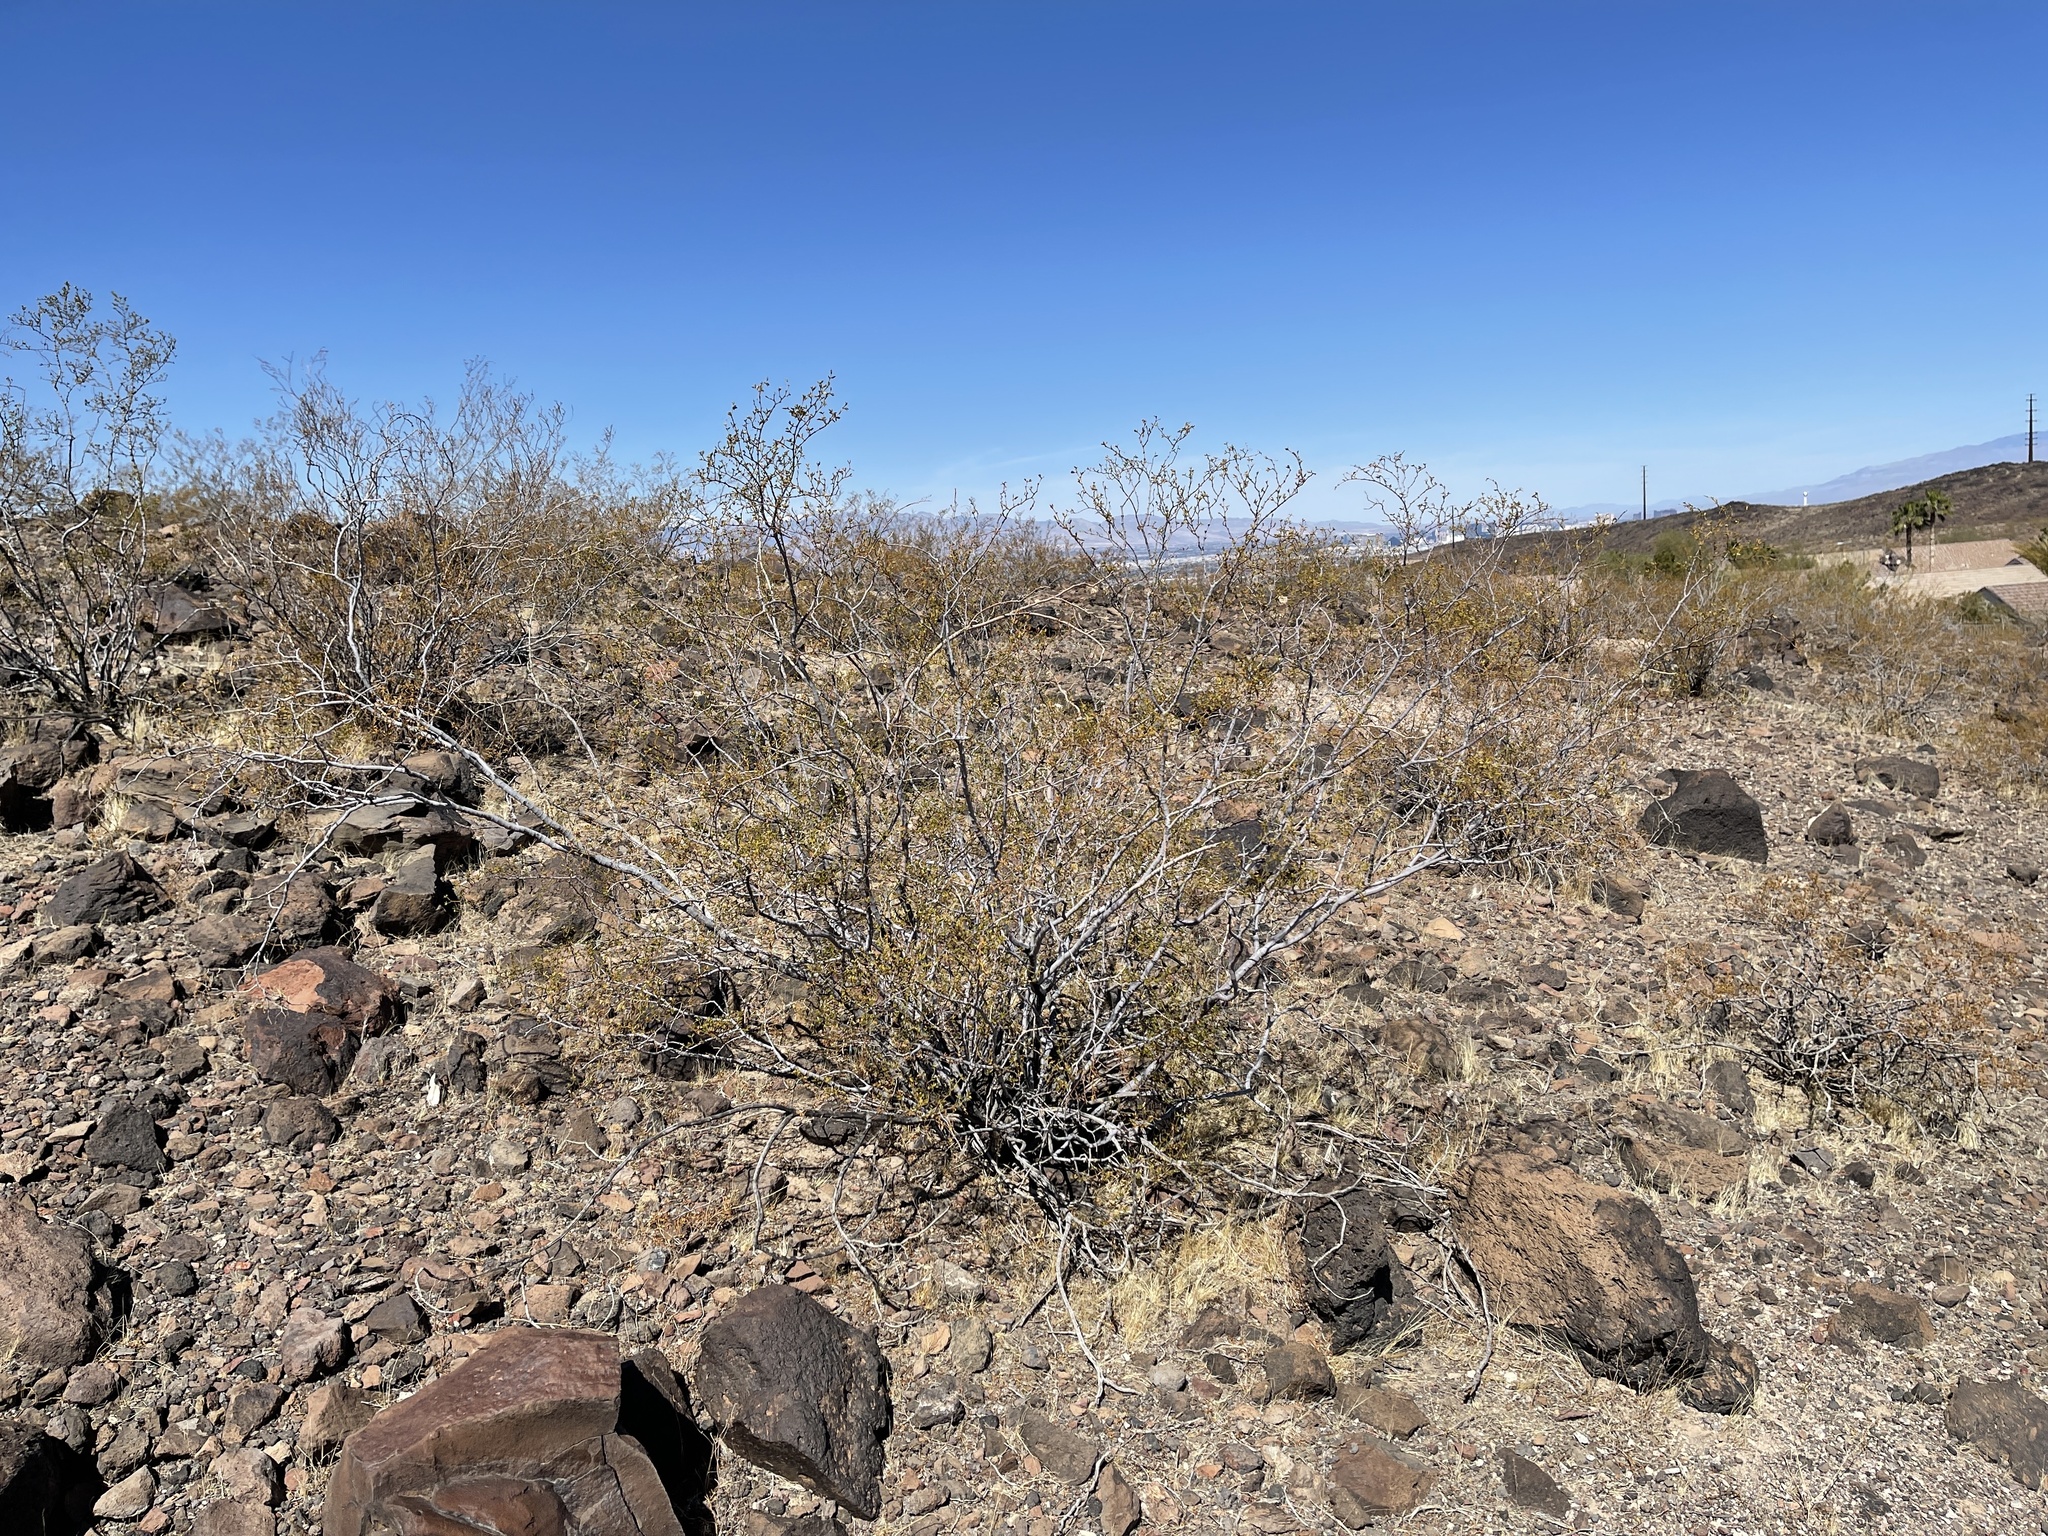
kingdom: Plantae
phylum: Tracheophyta
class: Magnoliopsida
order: Zygophyllales
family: Zygophyllaceae
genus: Larrea
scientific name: Larrea tridentata
